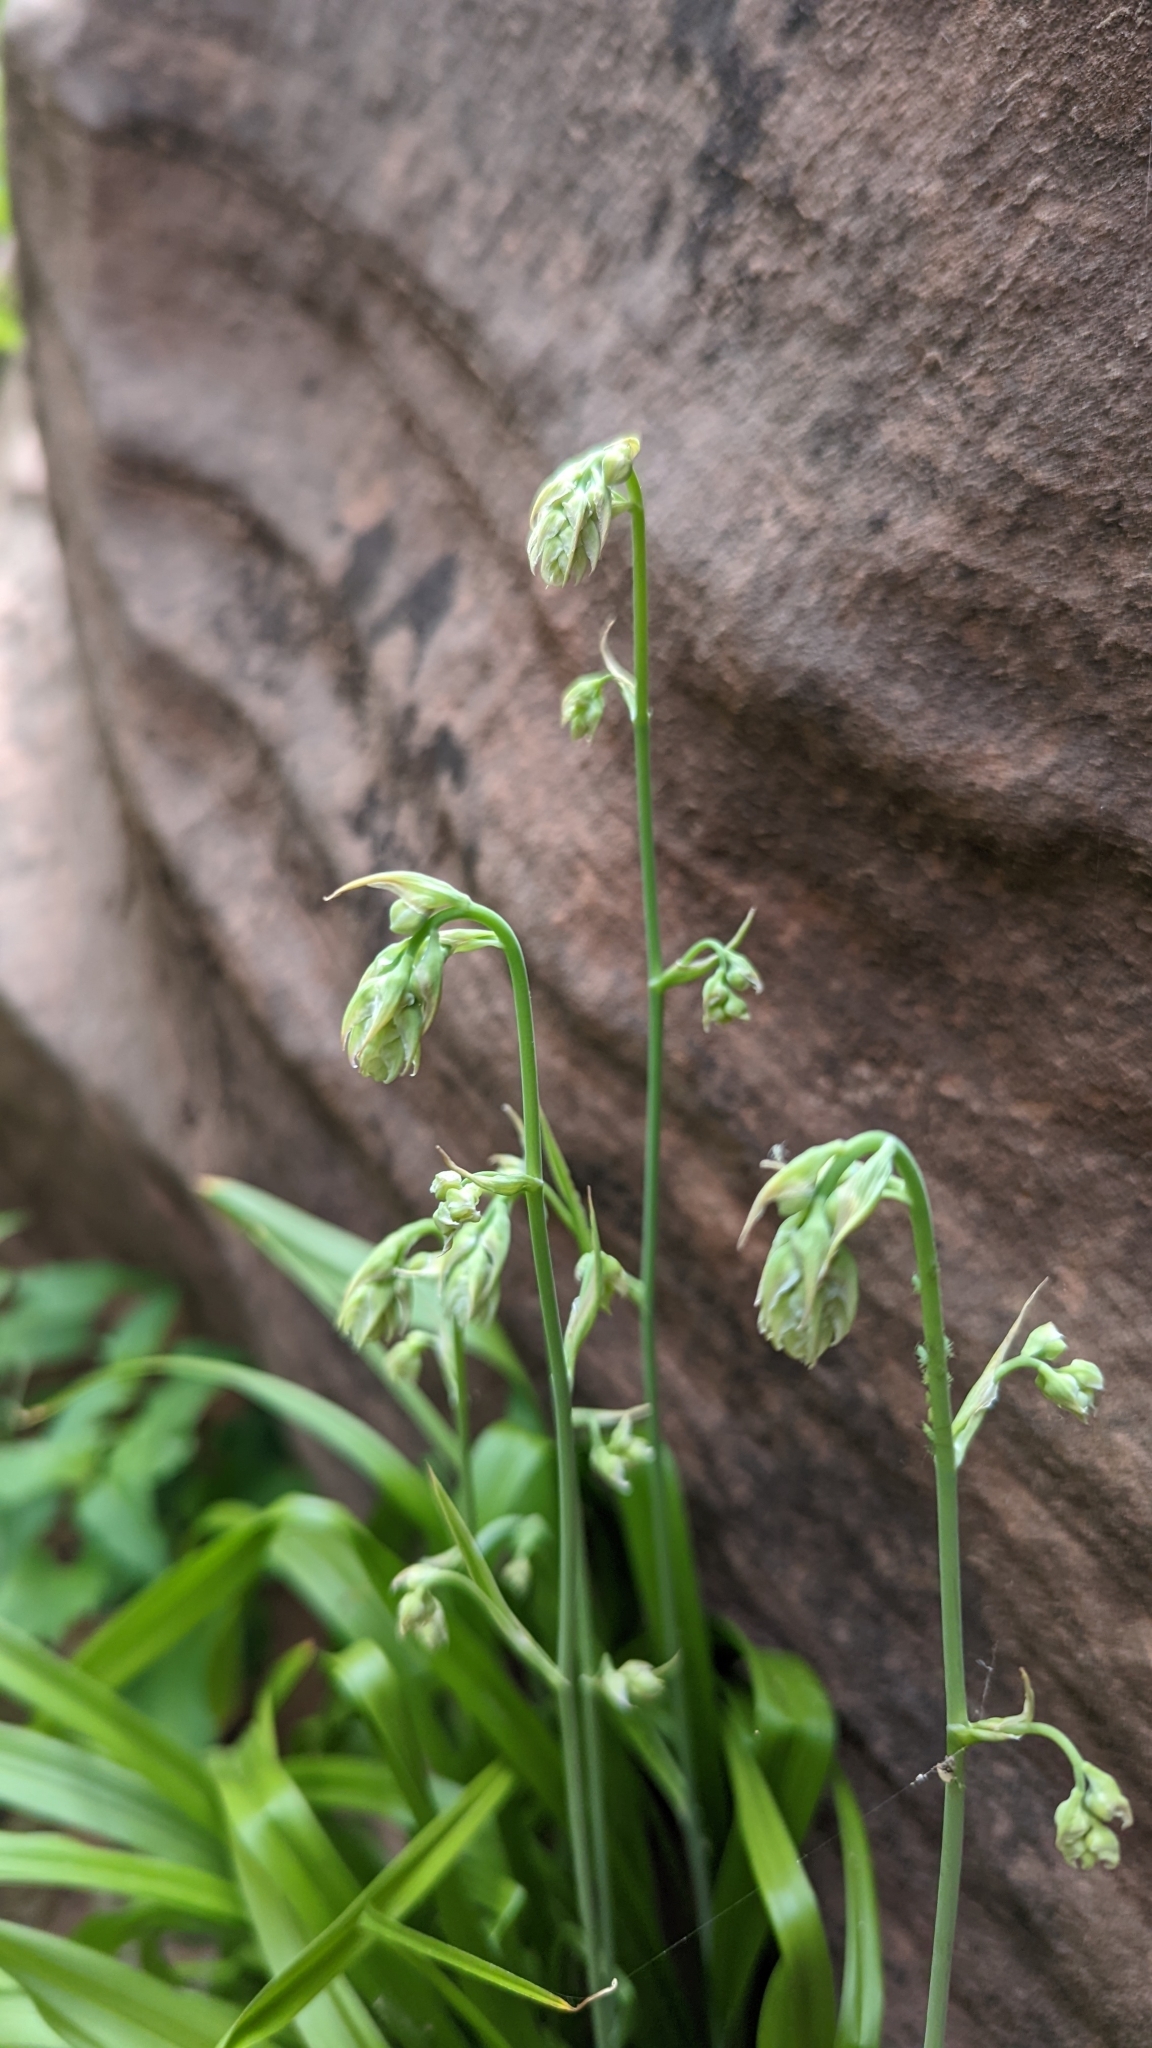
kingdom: Plantae
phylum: Tracheophyta
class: Liliopsida
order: Liliales
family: Melanthiaceae
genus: Anticlea
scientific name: Anticlea elegans
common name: Mountain death camas
